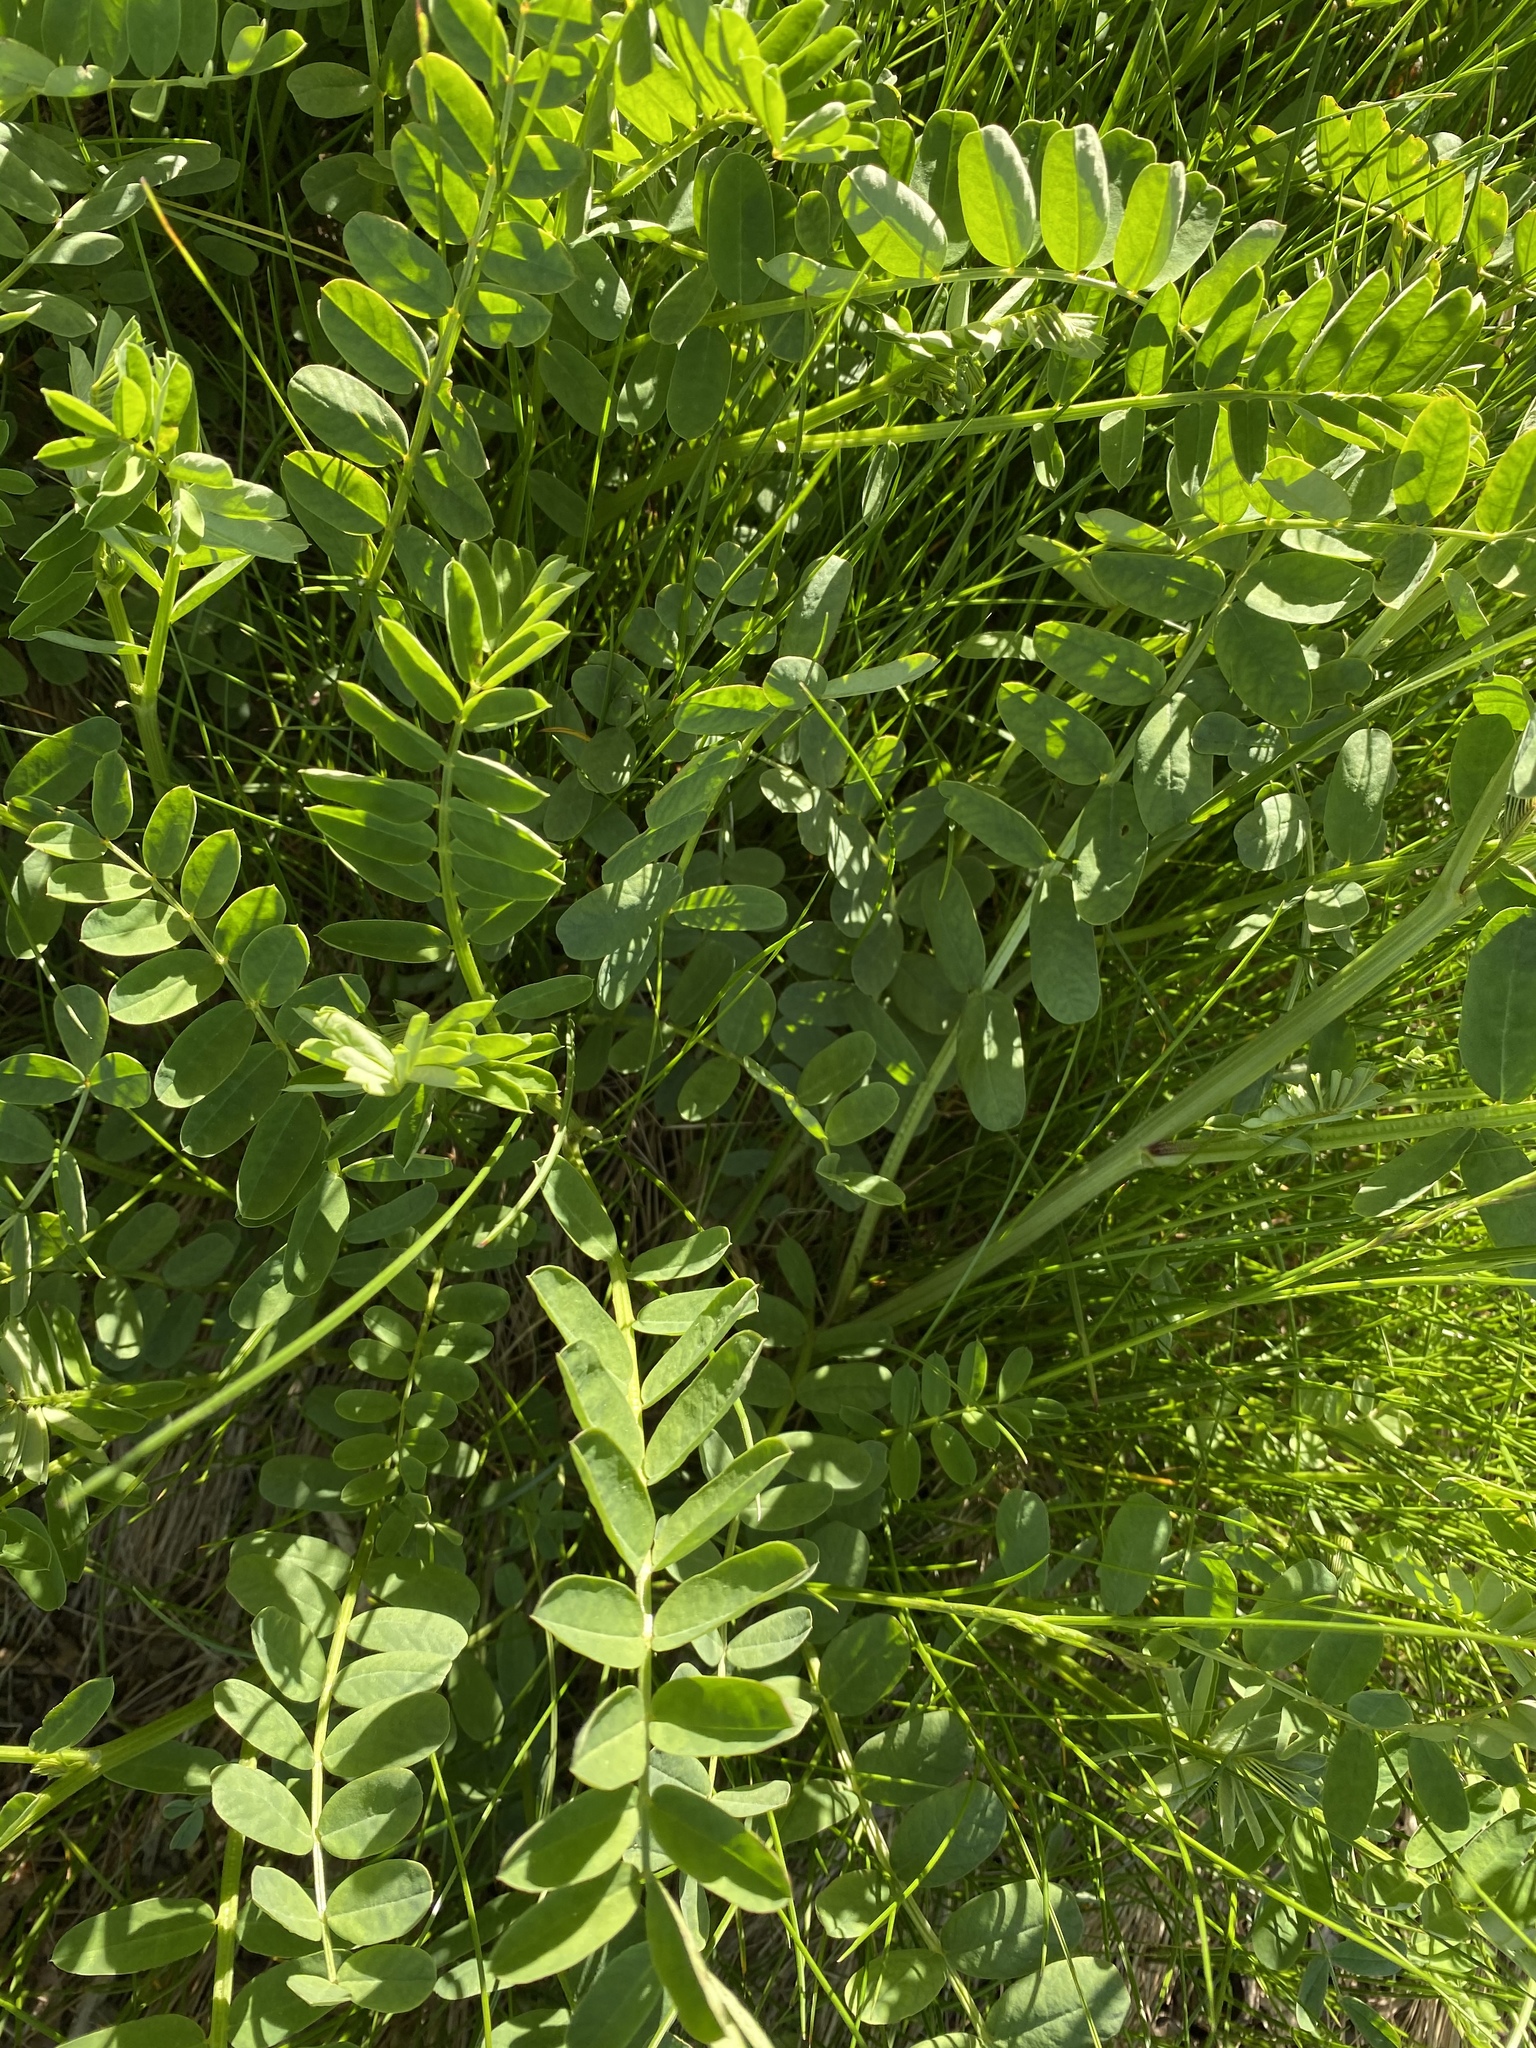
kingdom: Plantae
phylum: Tracheophyta
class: Magnoliopsida
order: Fabales
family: Fabaceae
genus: Coronilla
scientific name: Coronilla varia
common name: Crownvetch
